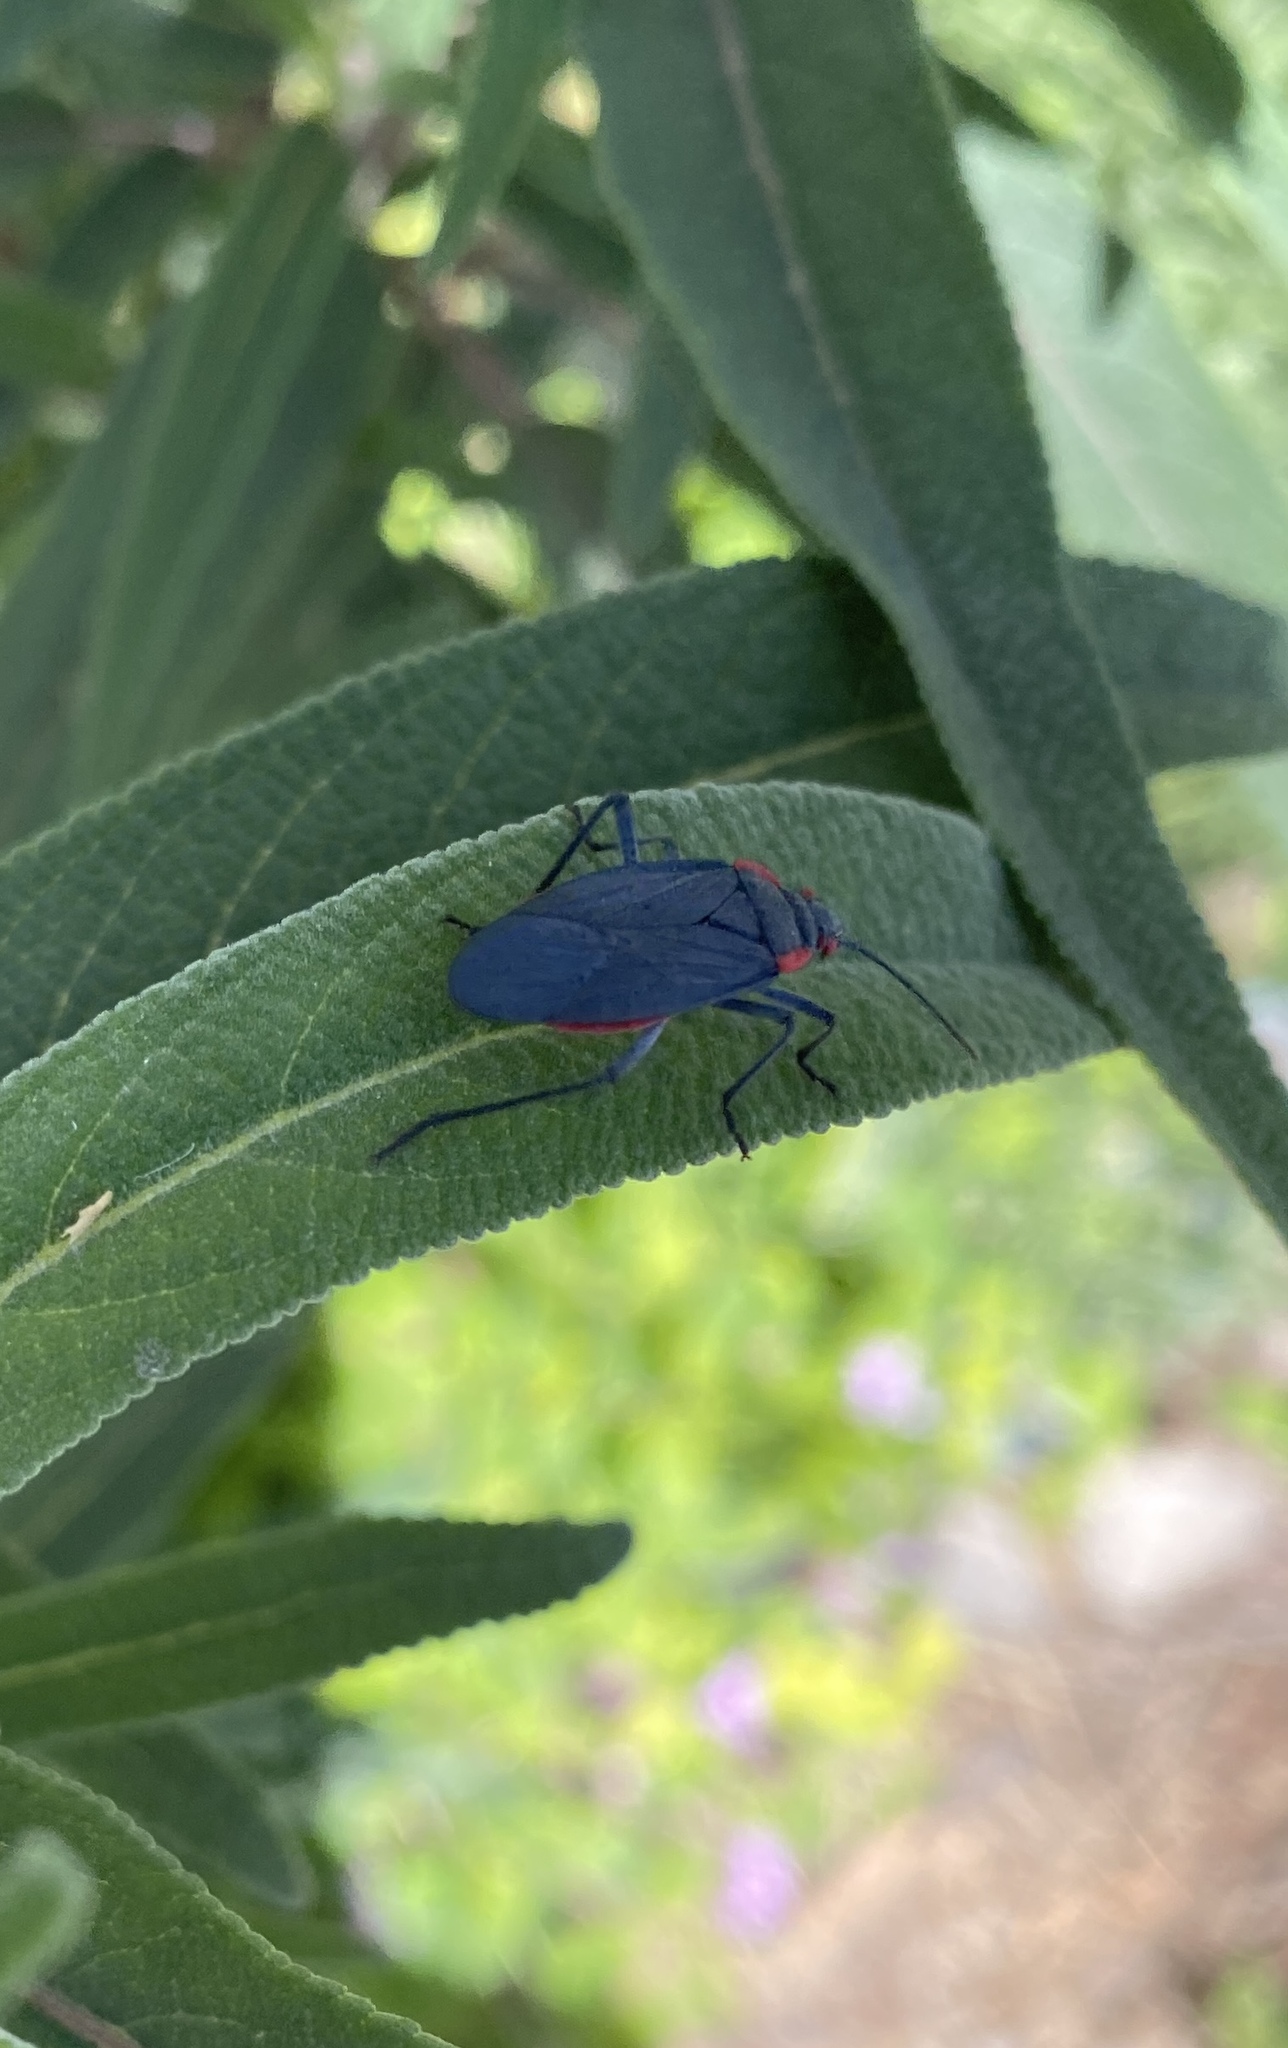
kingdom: Animalia
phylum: Arthropoda
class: Insecta
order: Hemiptera
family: Rhopalidae
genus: Jadera
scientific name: Jadera haematoloma
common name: Red-shouldered bug
